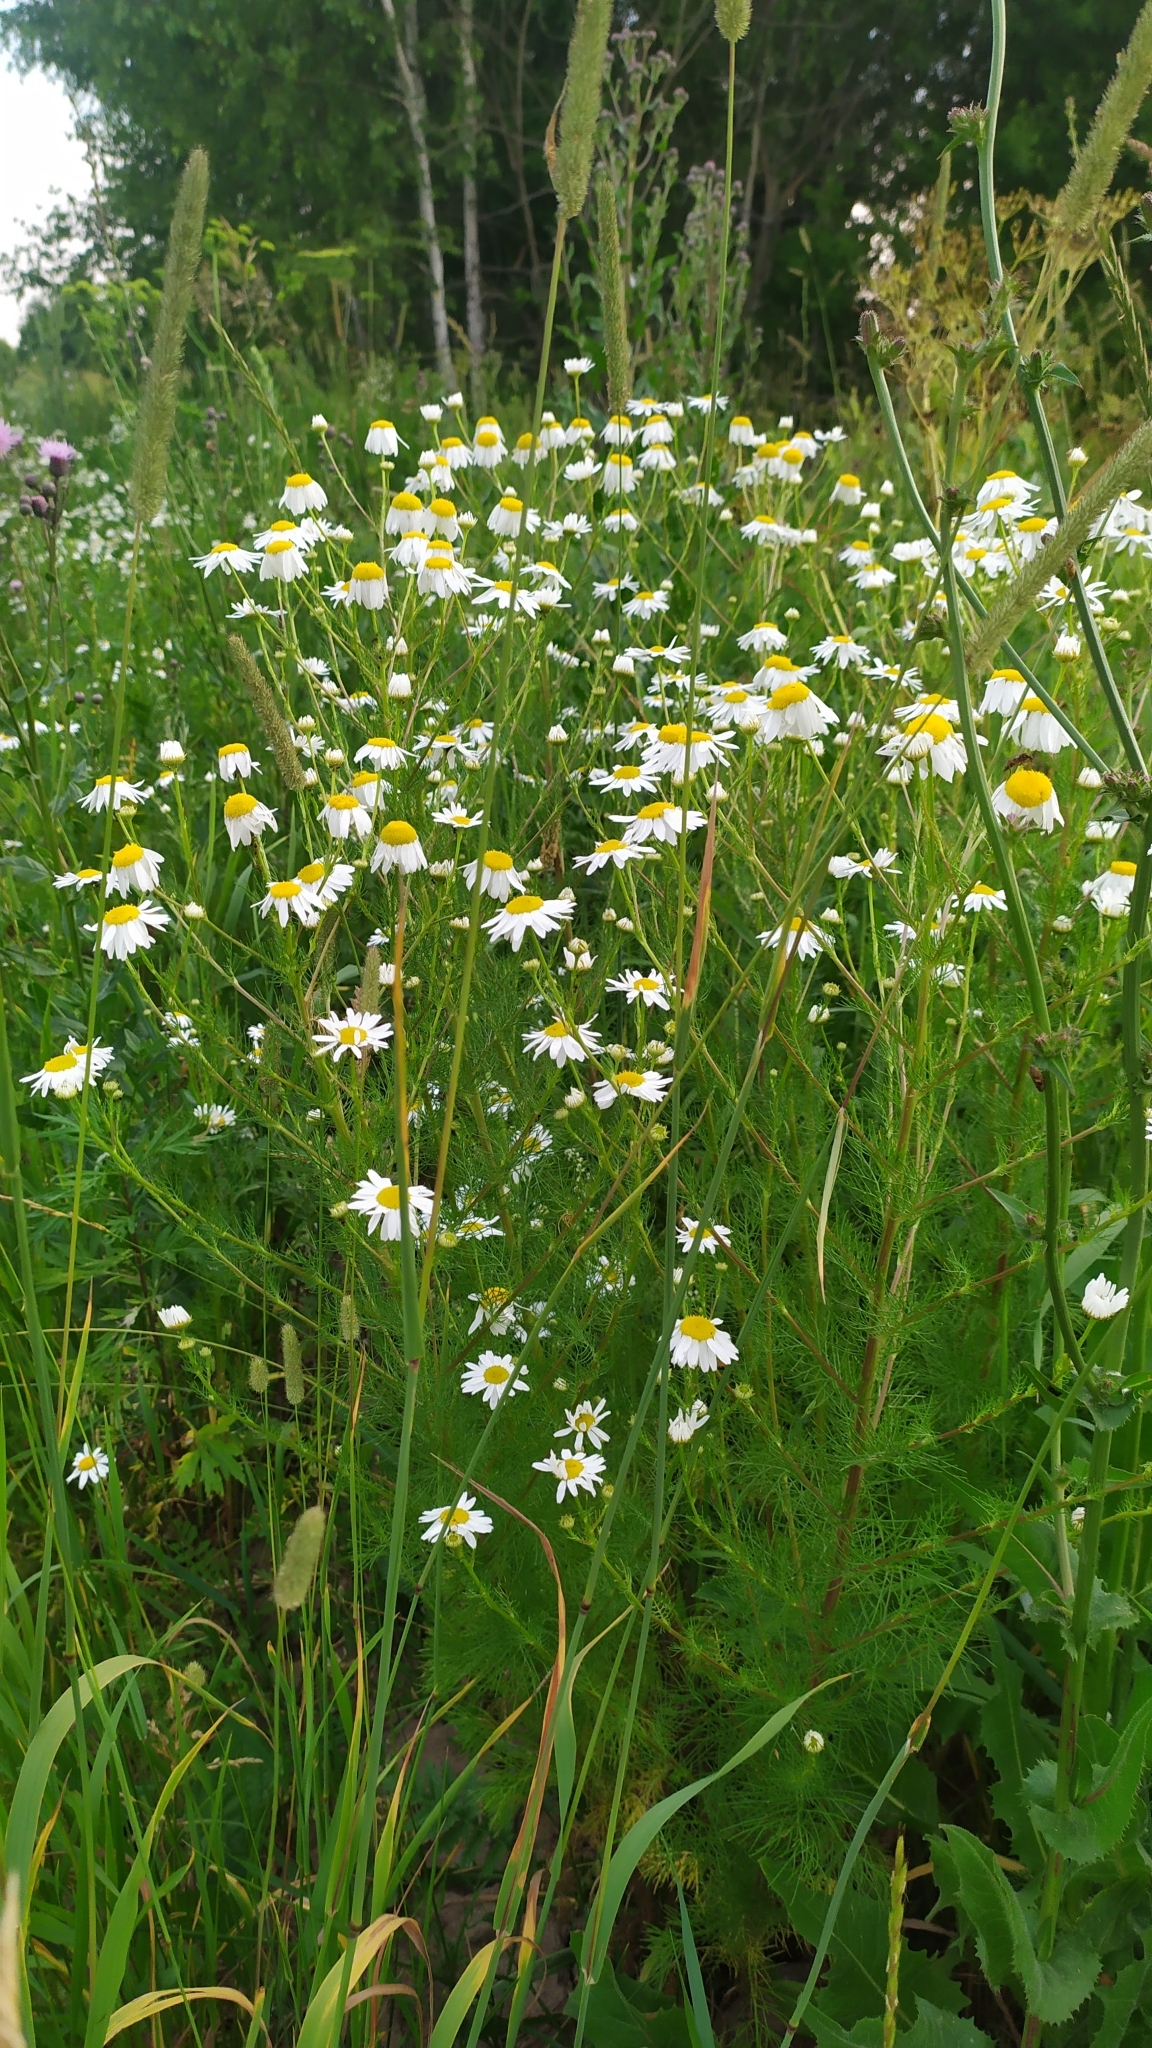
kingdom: Plantae
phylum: Tracheophyta
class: Magnoliopsida
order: Asterales
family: Asteraceae
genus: Tripleurospermum
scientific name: Tripleurospermum inodorum
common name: Scentless mayweed
